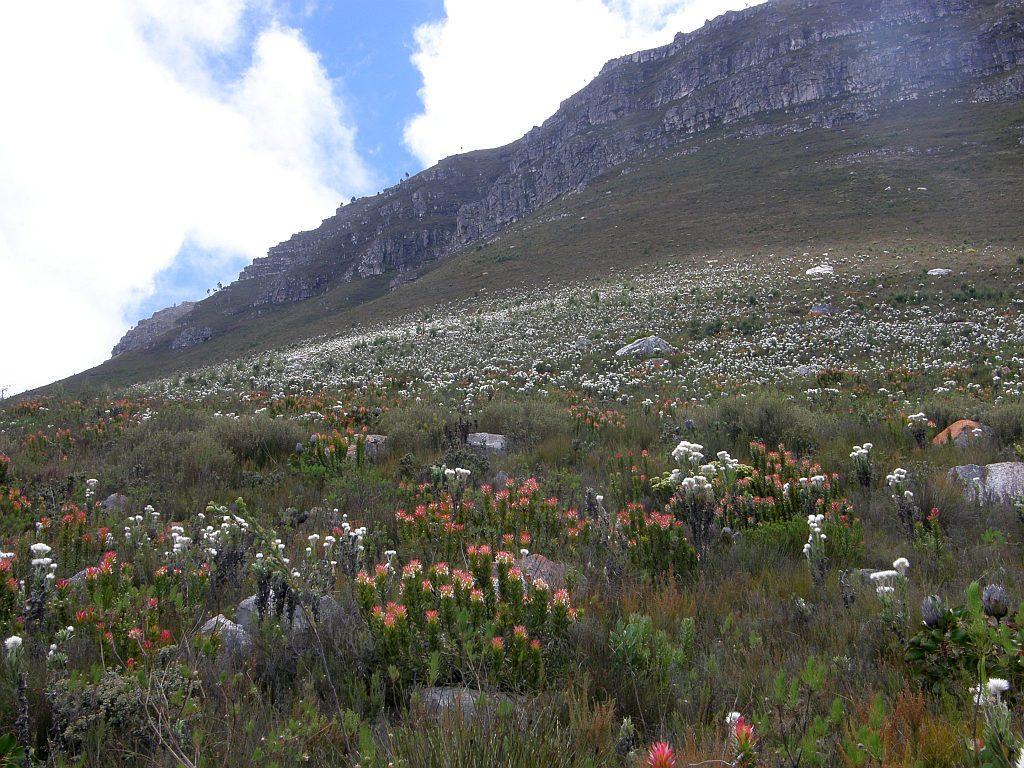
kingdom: Plantae
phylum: Tracheophyta
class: Magnoliopsida
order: Asterales
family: Asteraceae
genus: Syncarpha
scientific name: Syncarpha vestita
